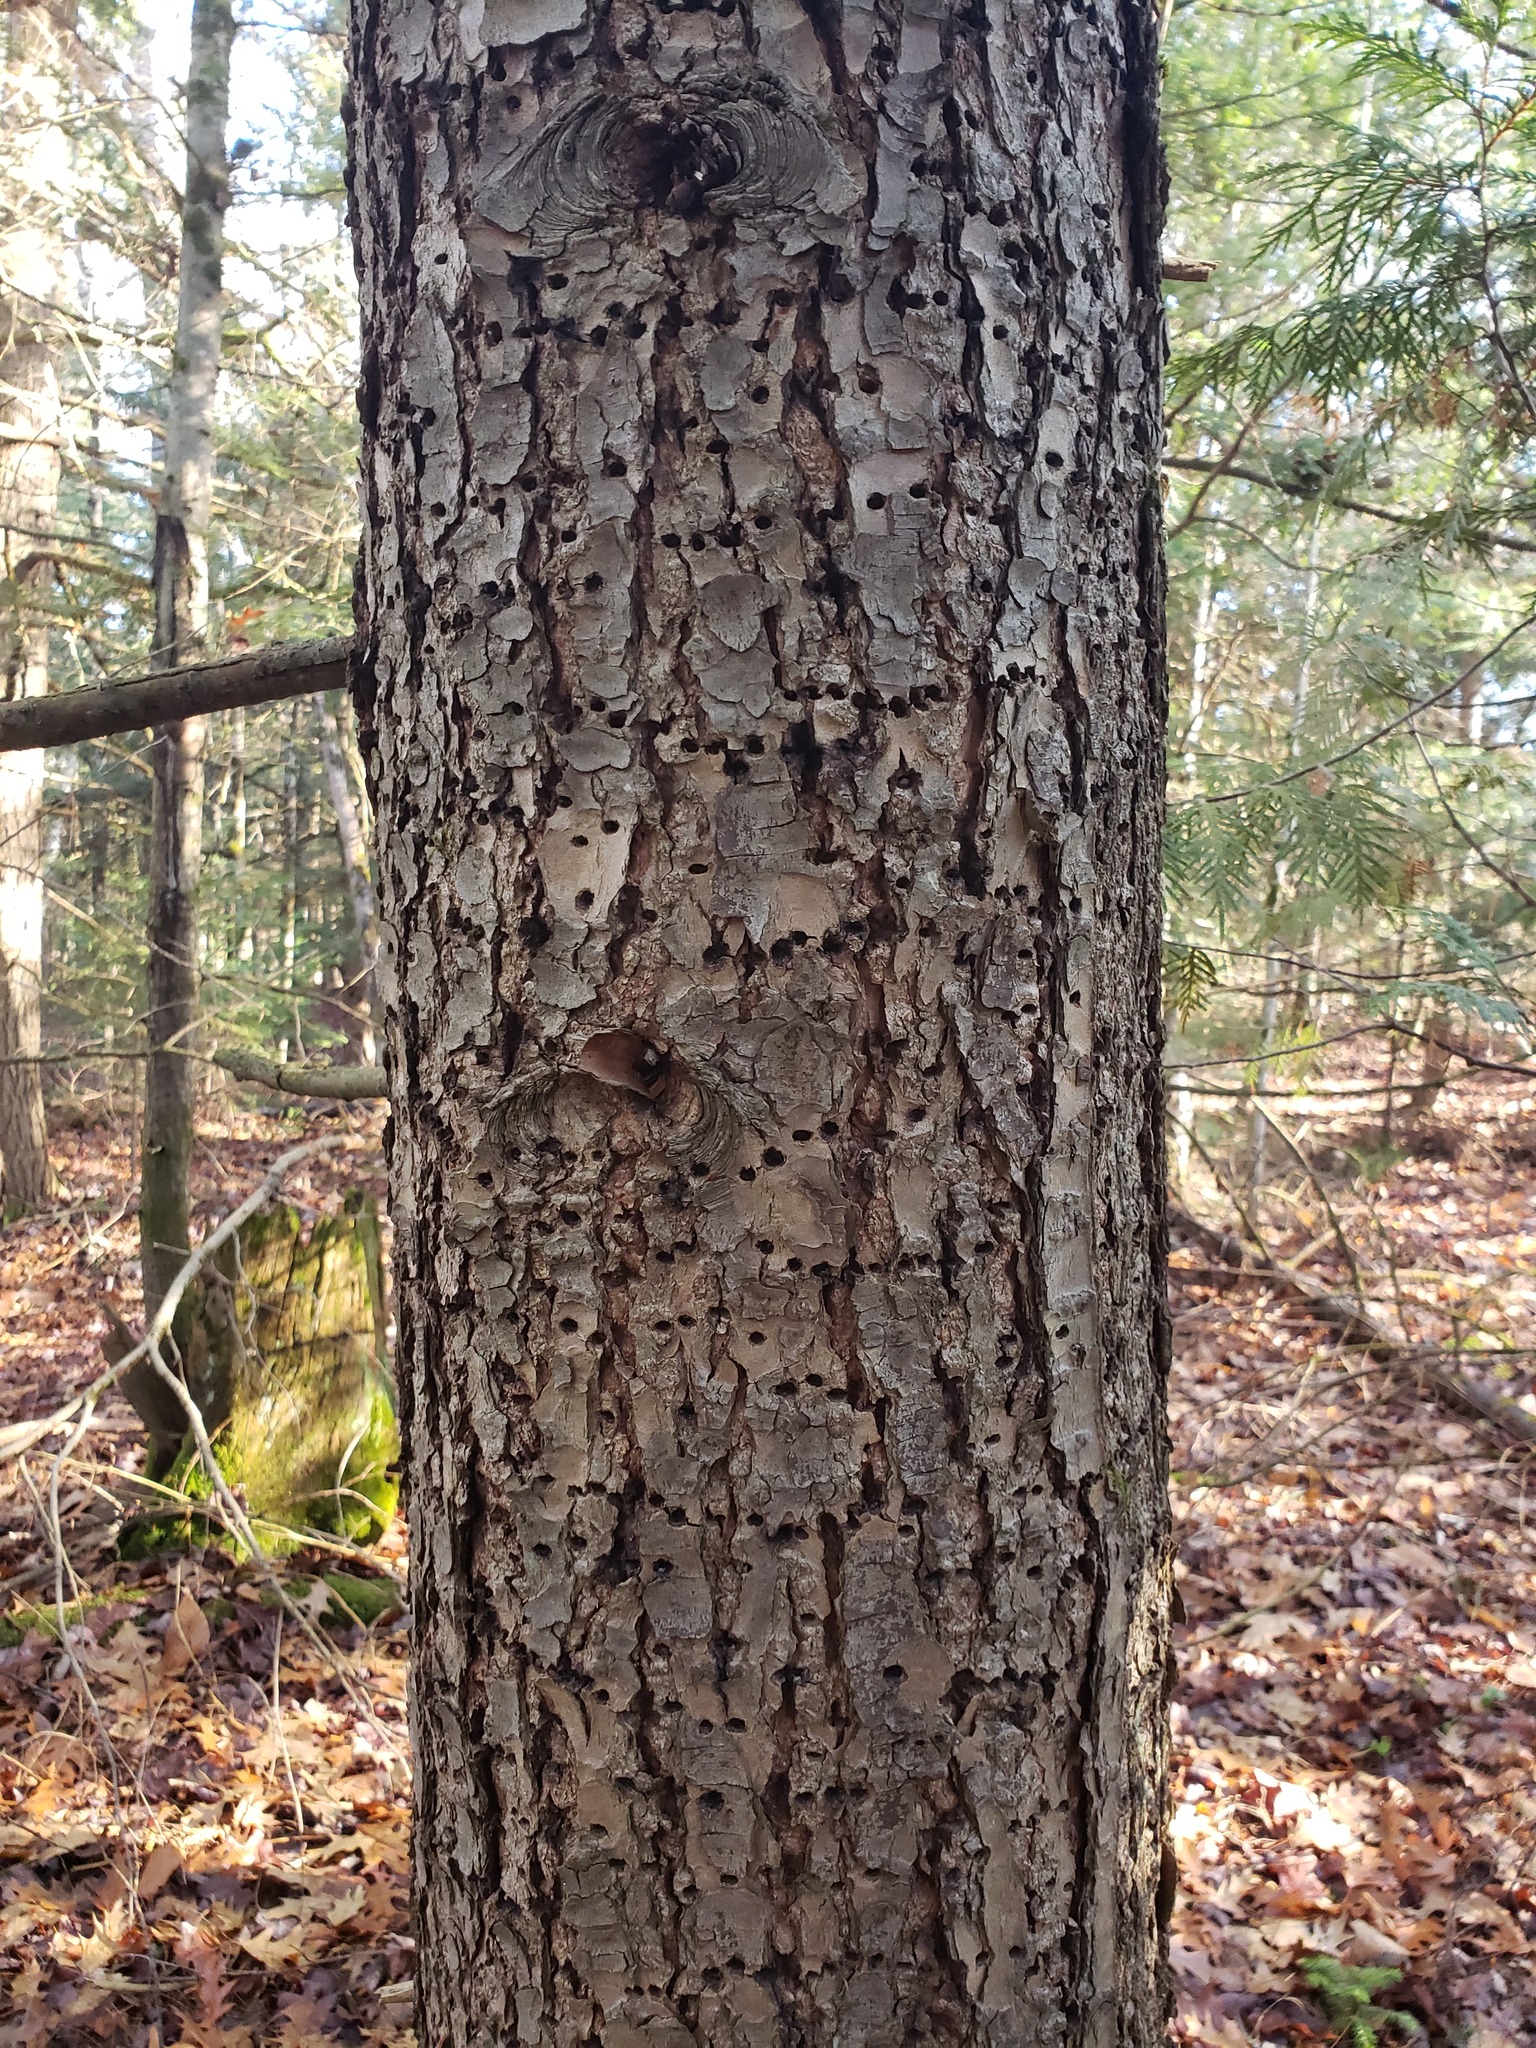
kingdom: Animalia
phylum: Chordata
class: Aves
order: Piciformes
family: Picidae
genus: Sphyrapicus
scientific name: Sphyrapicus varius
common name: Yellow-bellied sapsucker
